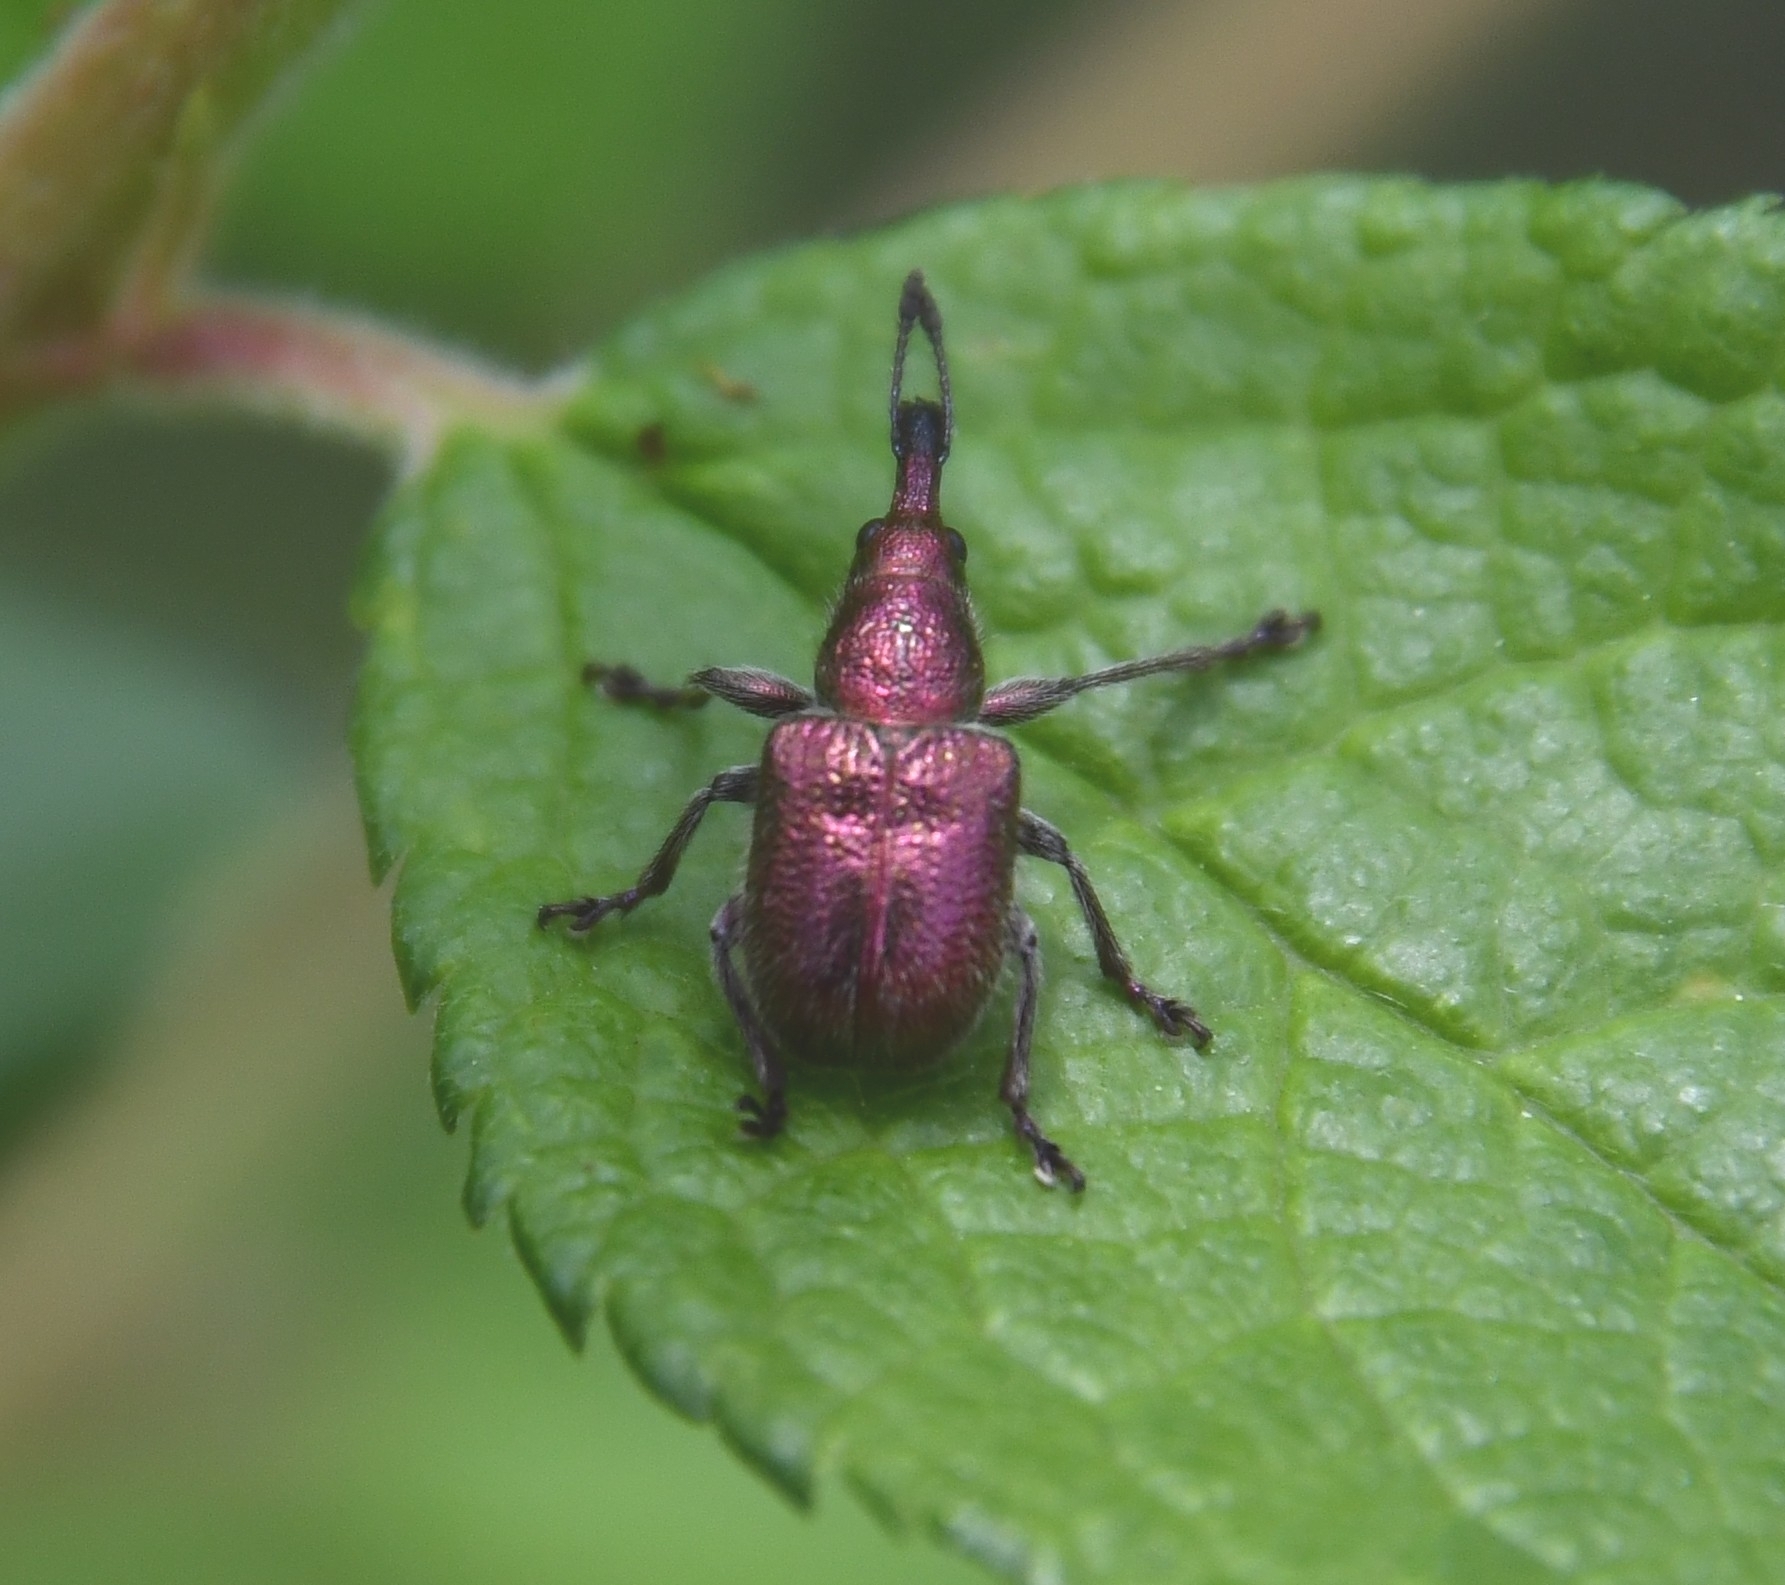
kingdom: Animalia
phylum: Arthropoda
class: Insecta
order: Coleoptera
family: Attelabidae
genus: Rhynchites
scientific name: Rhynchites auratus
